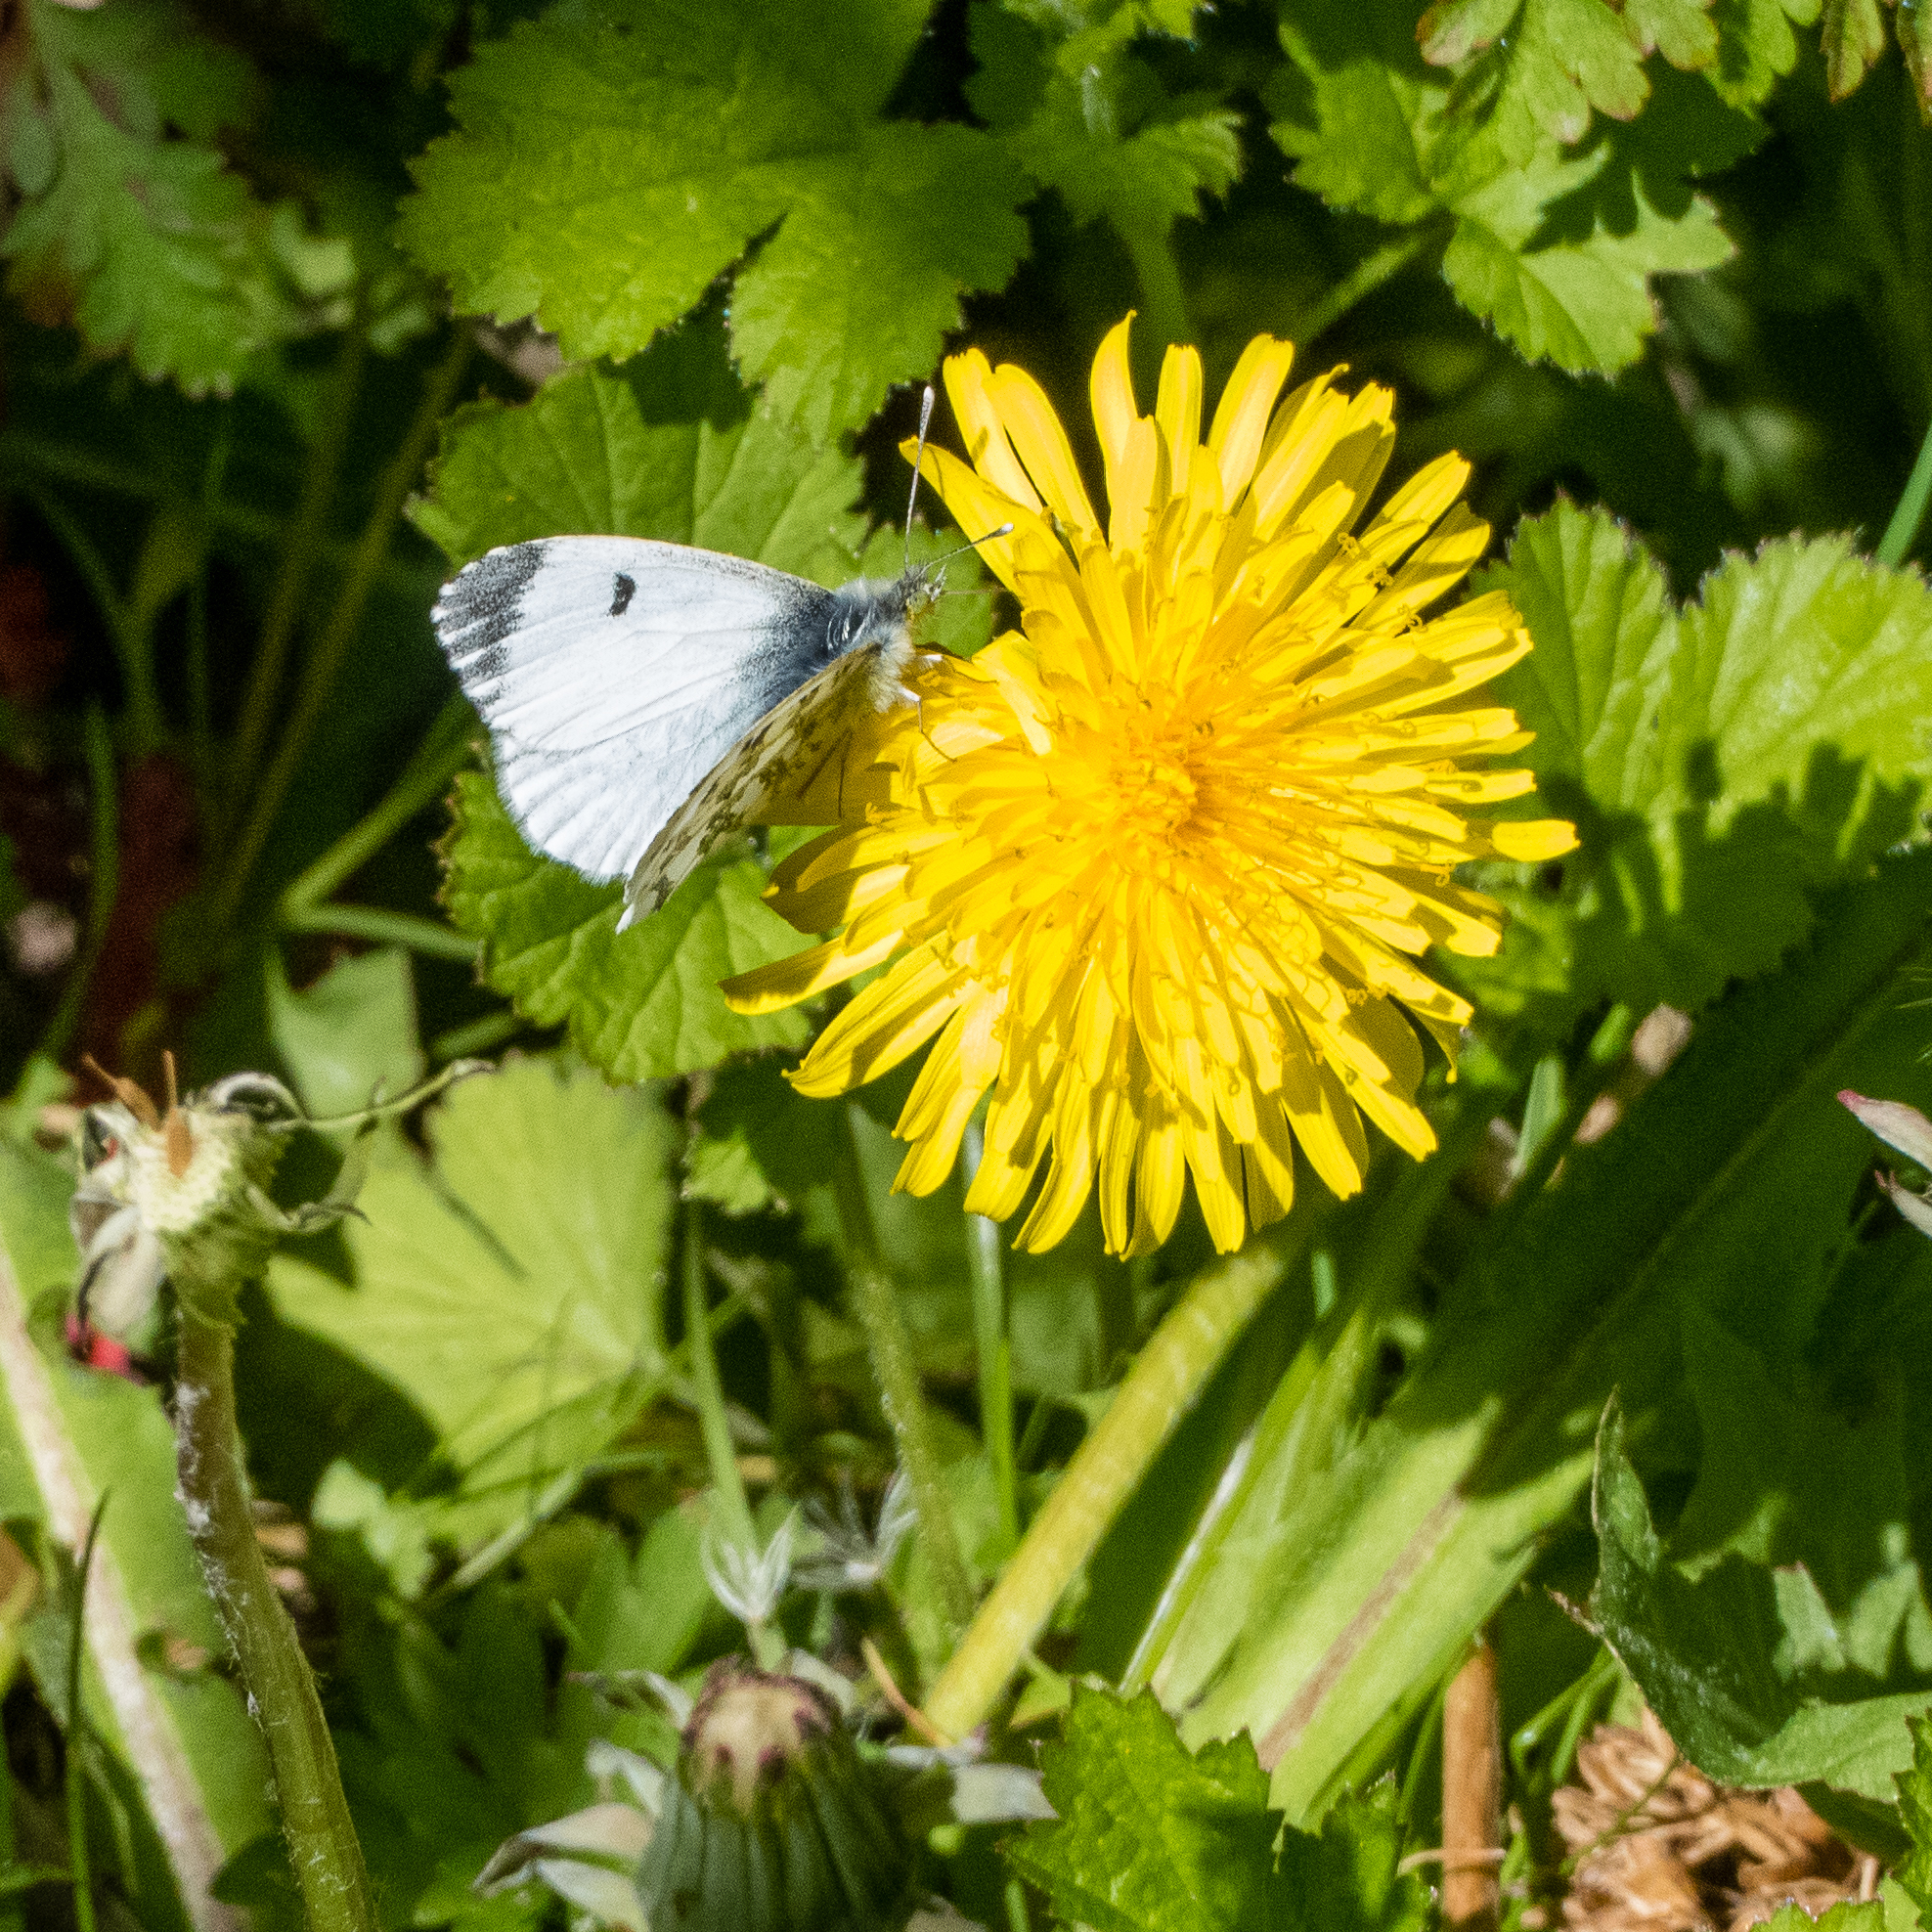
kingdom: Animalia
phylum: Arthropoda
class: Insecta
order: Lepidoptera
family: Pieridae
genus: Anthocharis
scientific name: Anthocharis cardamines
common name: Orange-tip
